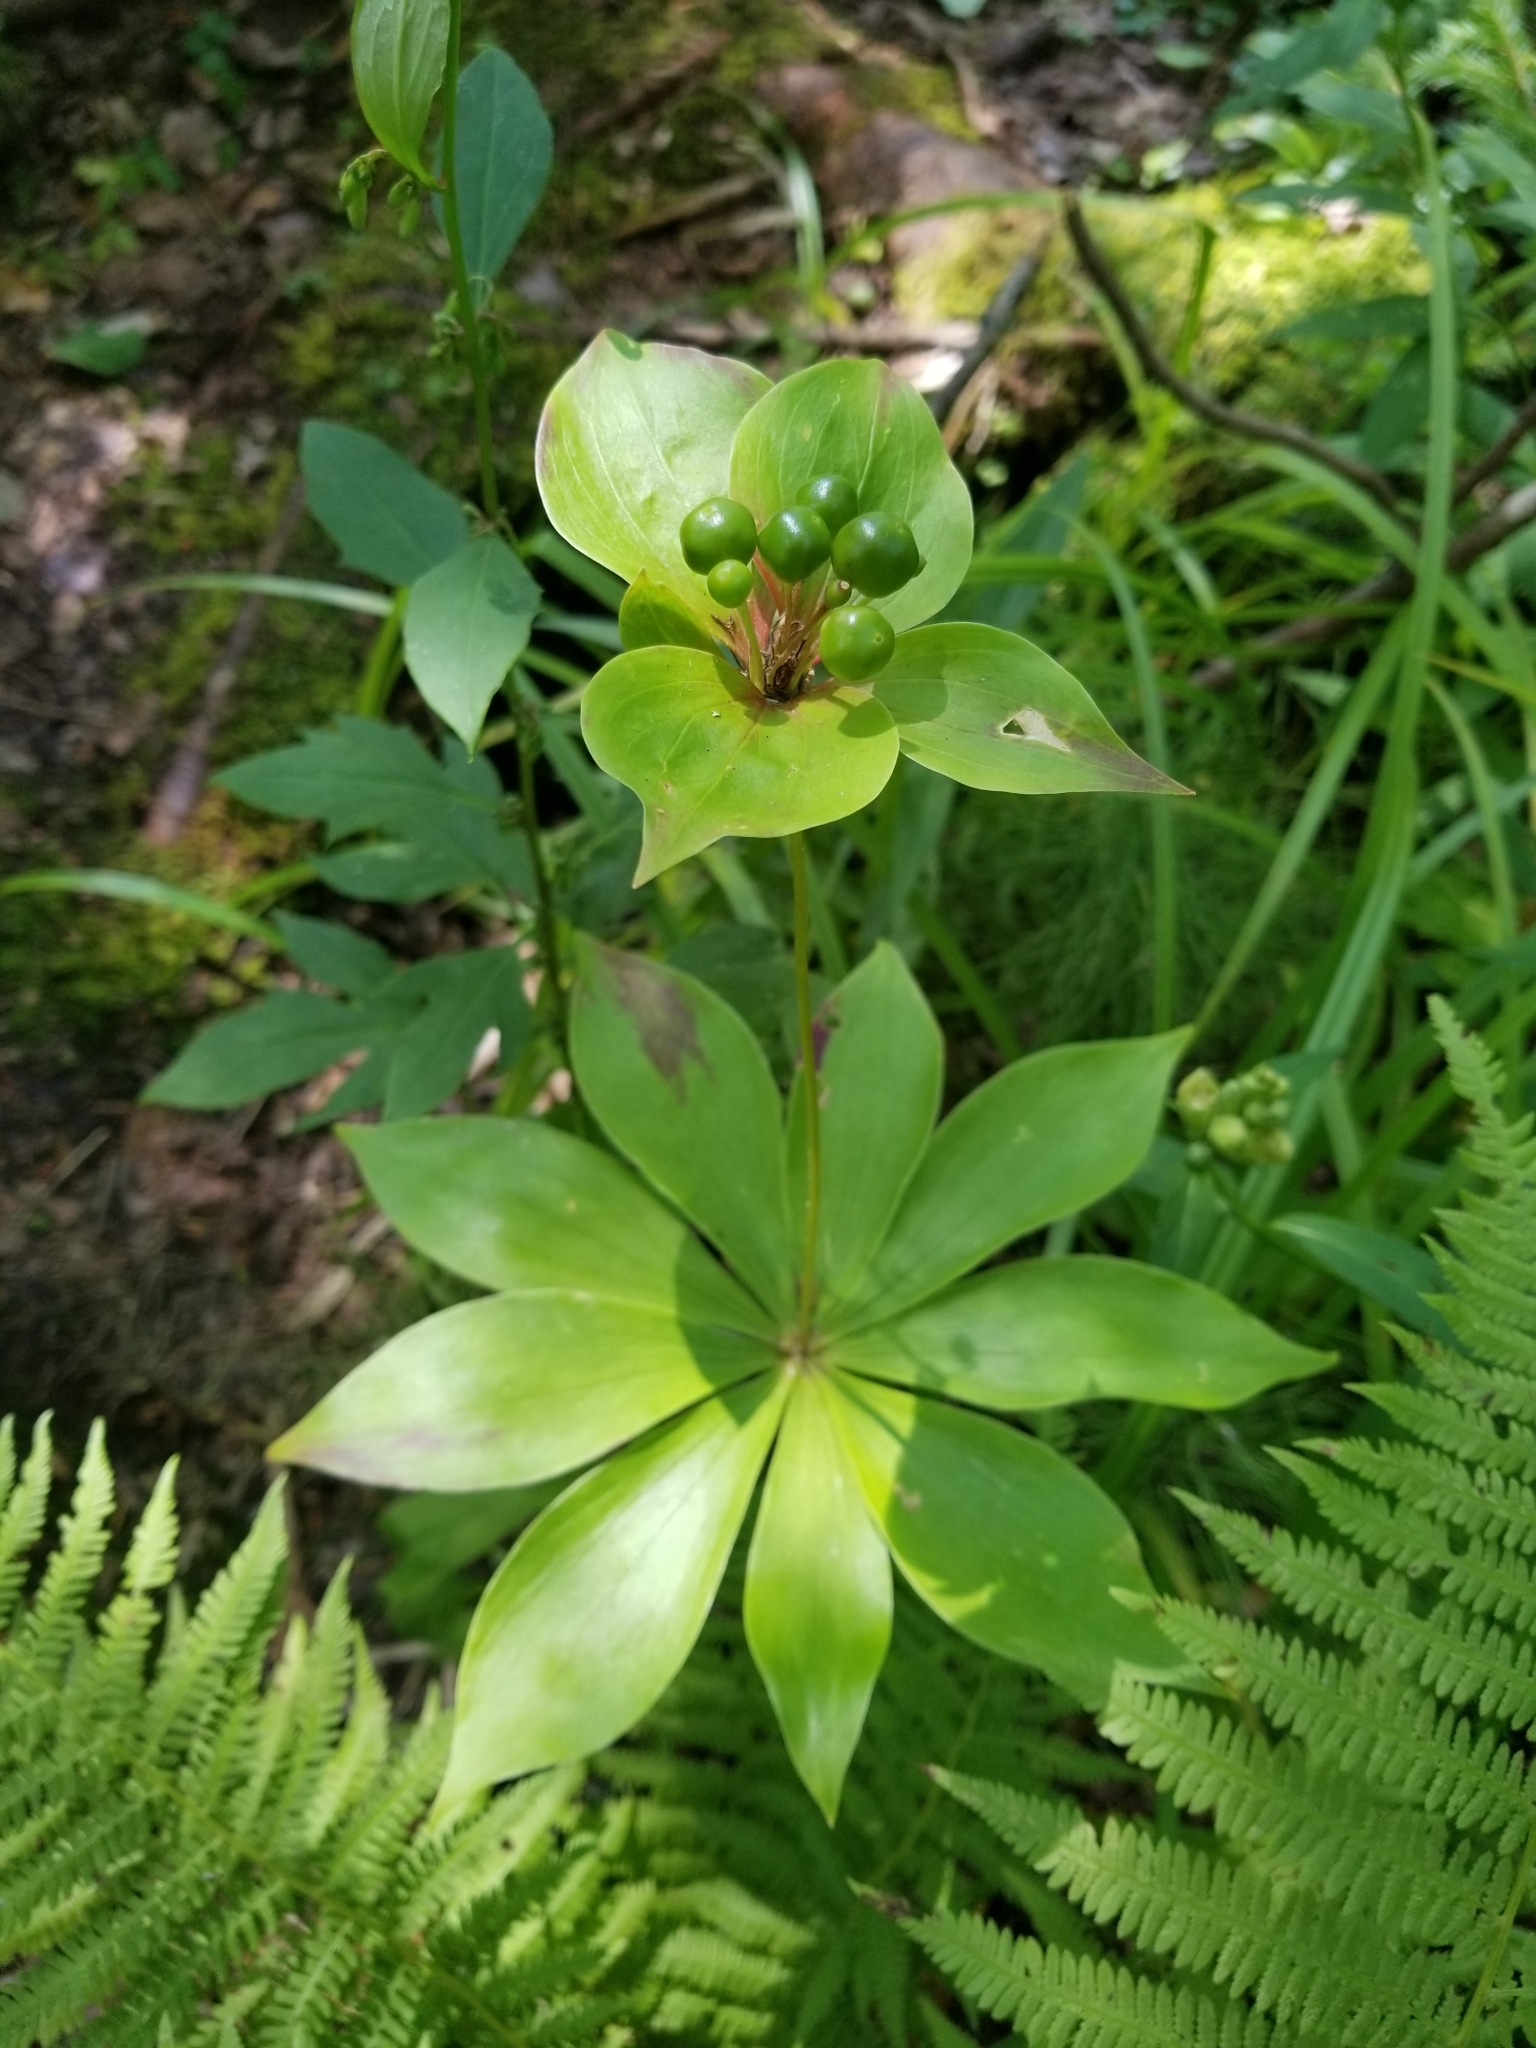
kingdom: Plantae
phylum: Tracheophyta
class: Liliopsida
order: Liliales
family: Liliaceae
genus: Medeola
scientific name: Medeola virginiana
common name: Indian cucumber-root
